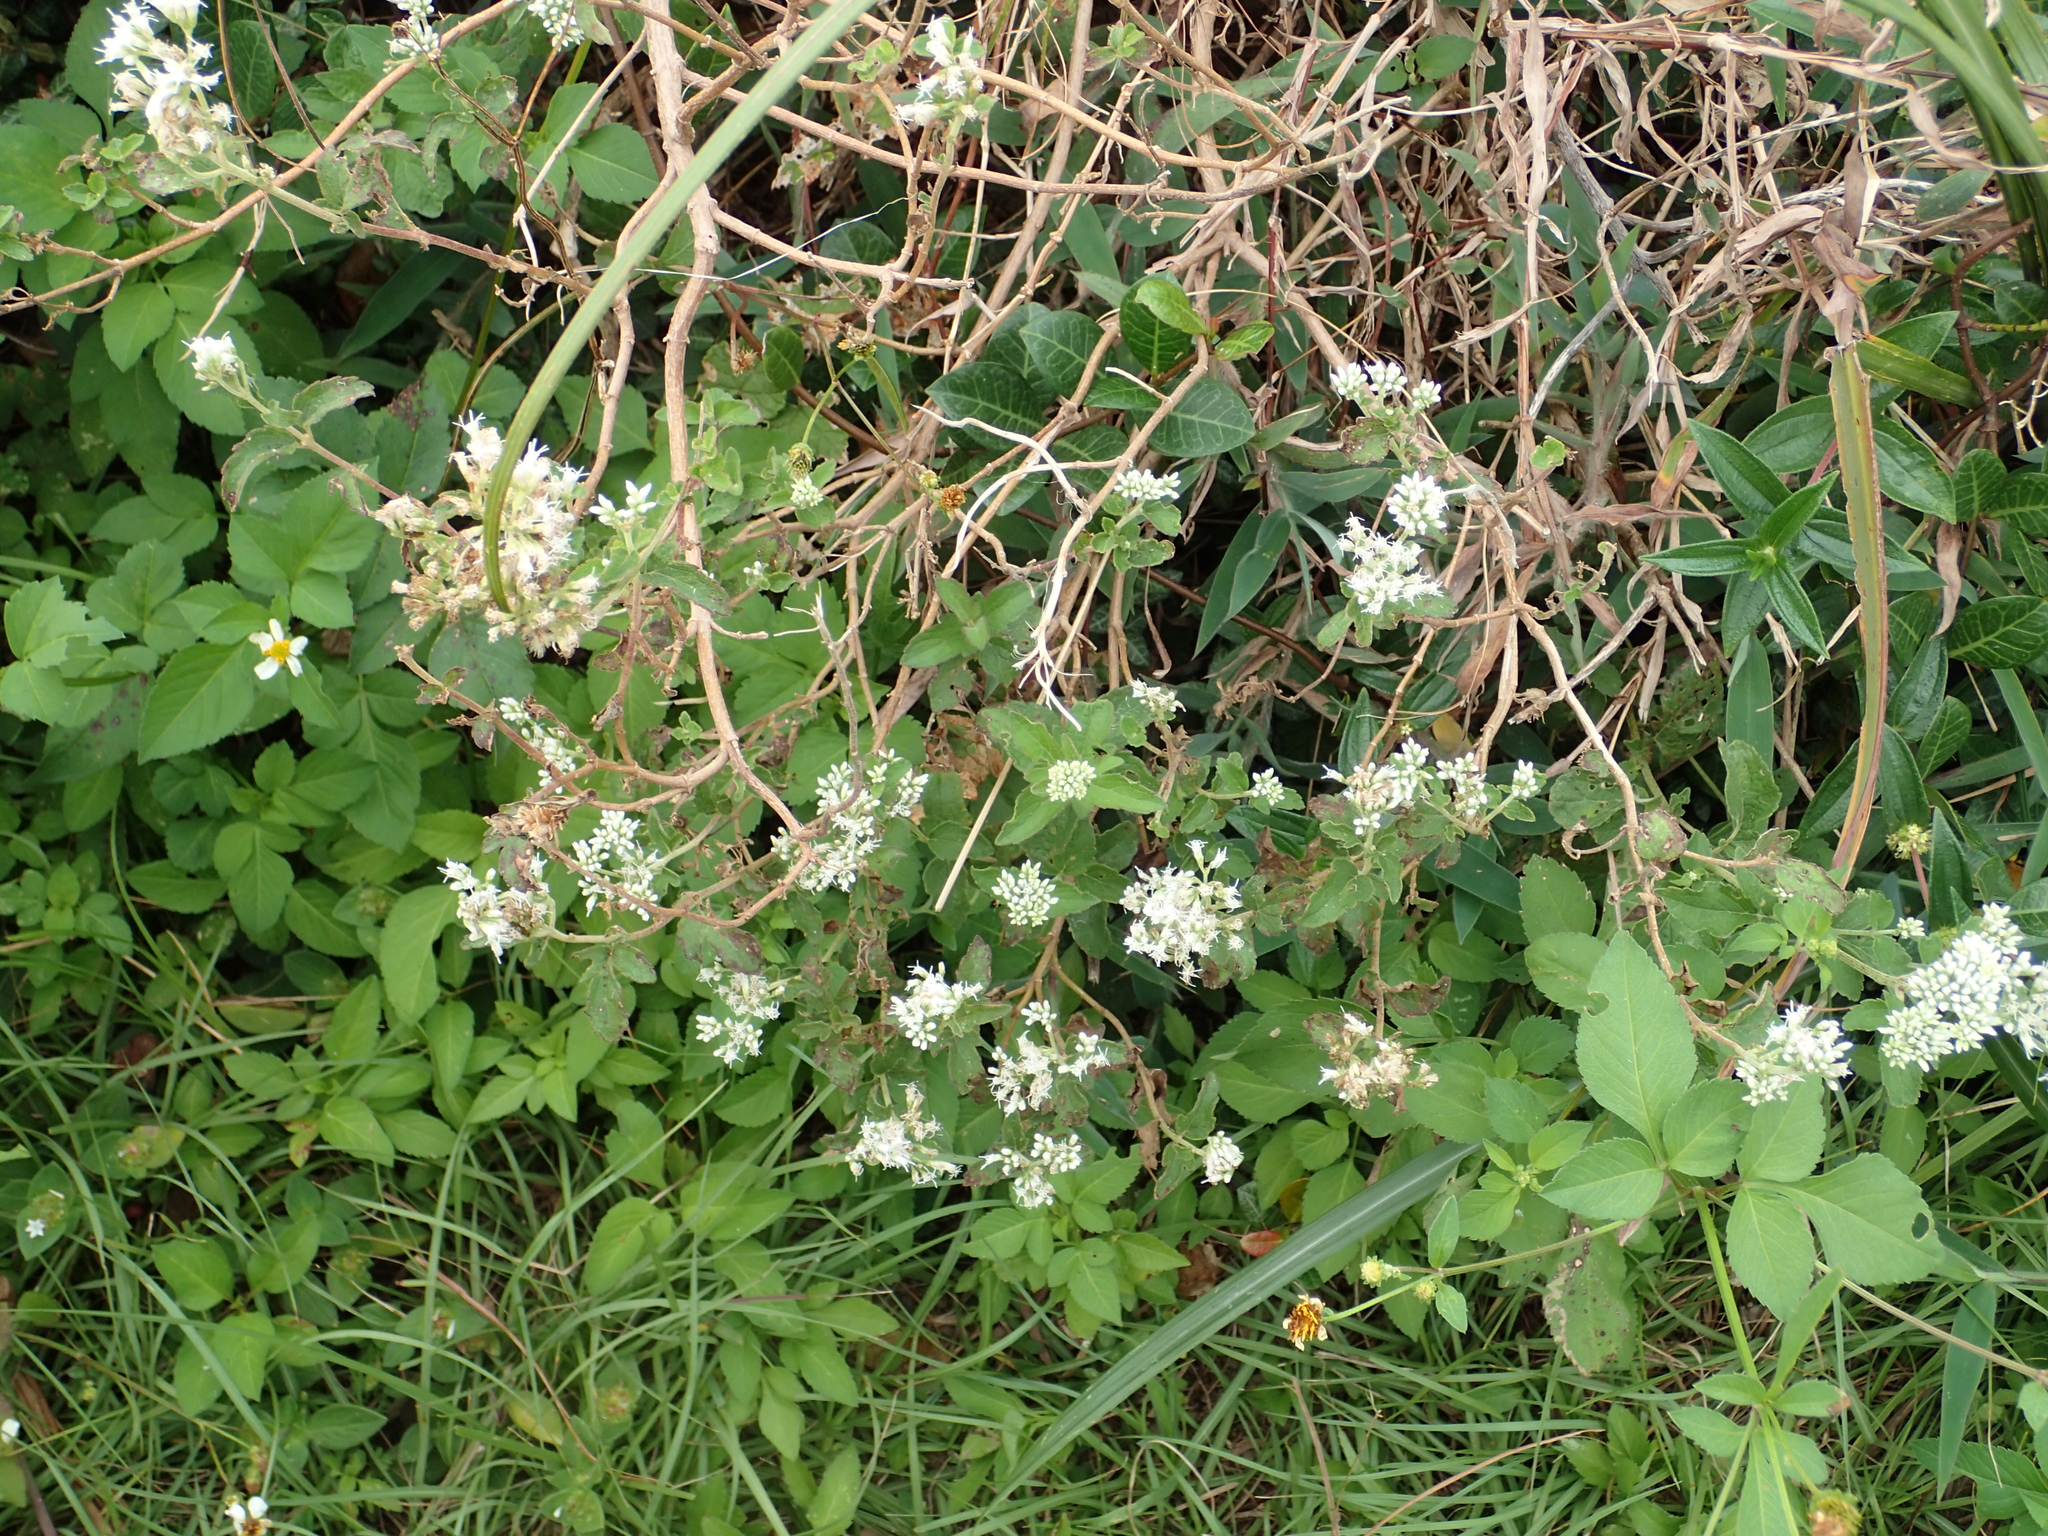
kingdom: Plantae
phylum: Tracheophyta
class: Magnoliopsida
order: Asterales
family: Asteraceae
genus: Eupatorium
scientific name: Eupatorium formosanum
